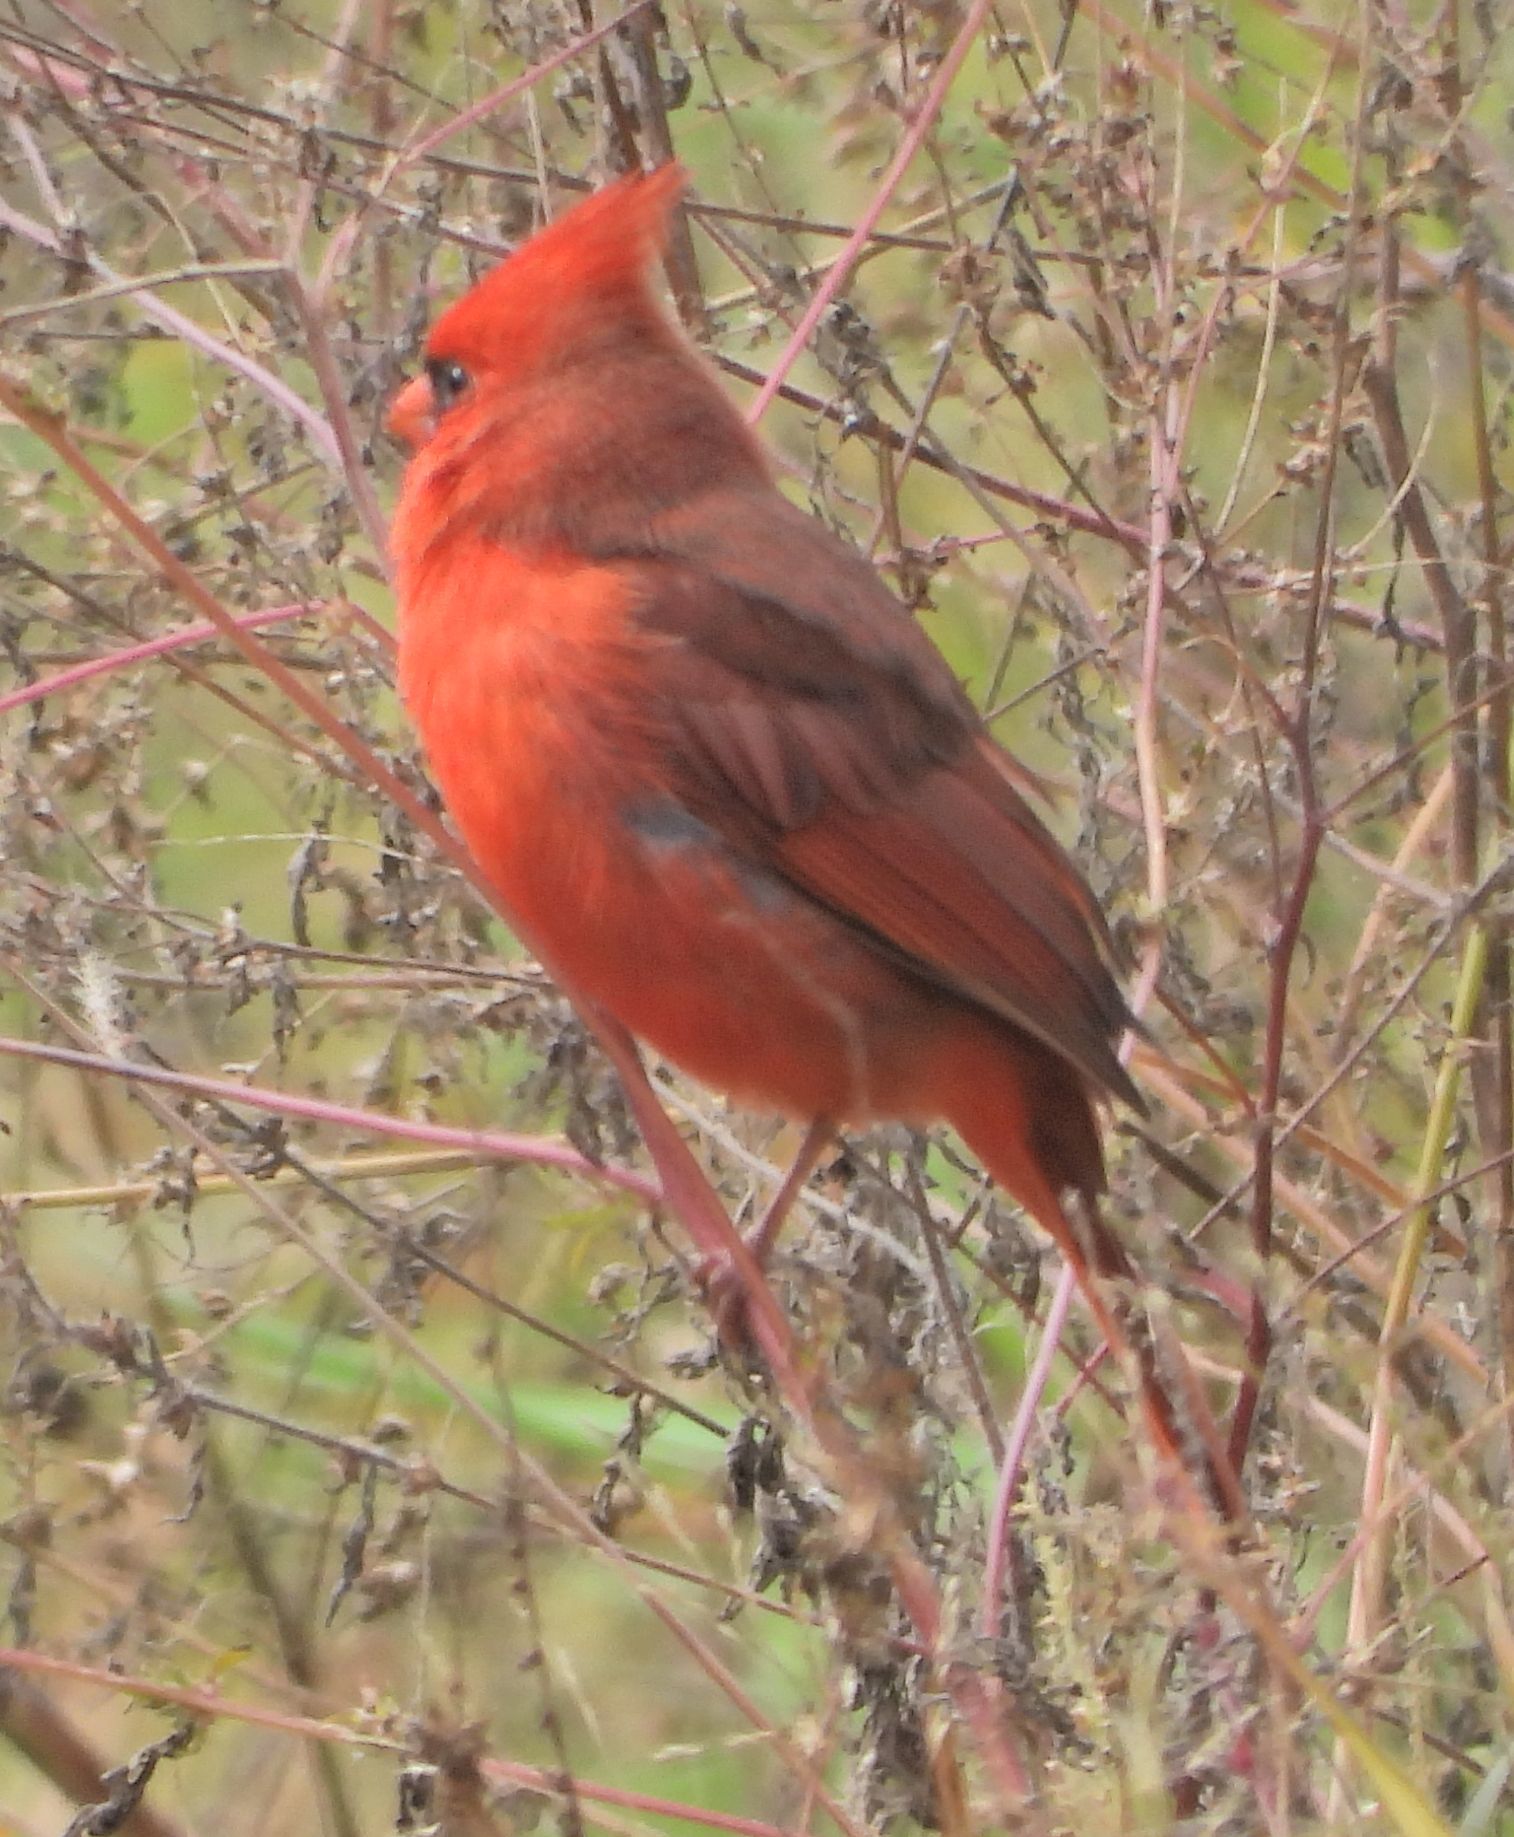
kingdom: Animalia
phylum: Chordata
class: Aves
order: Passeriformes
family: Cardinalidae
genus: Cardinalis
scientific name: Cardinalis cardinalis
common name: Northern cardinal
